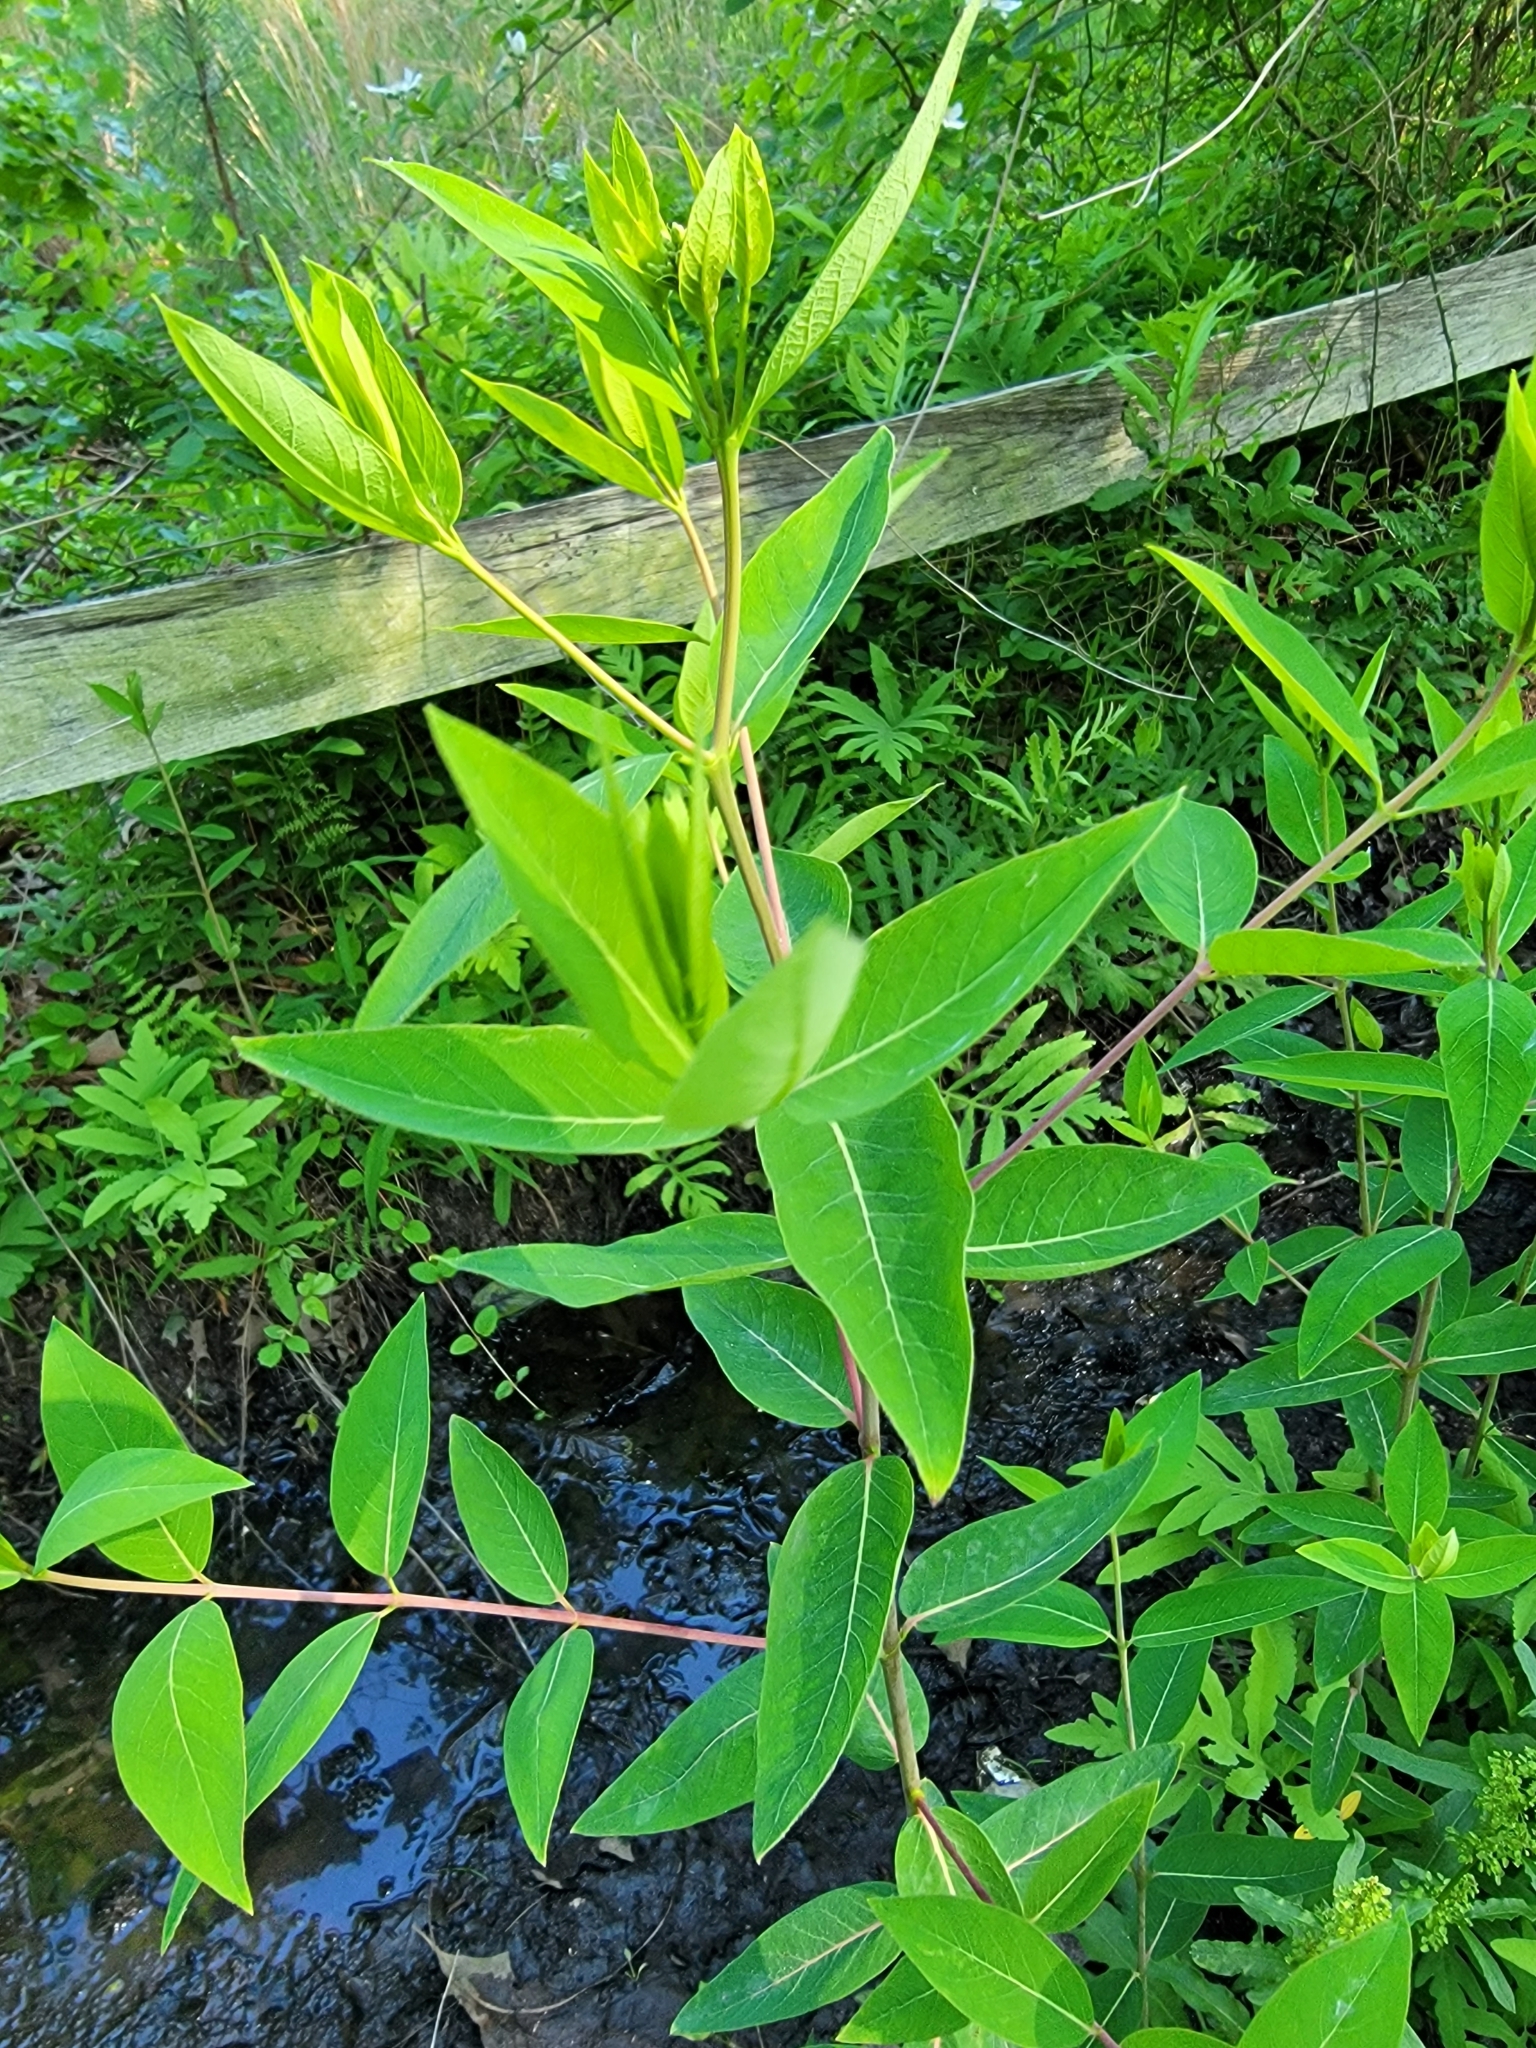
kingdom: Plantae
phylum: Tracheophyta
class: Magnoliopsida
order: Gentianales
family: Apocynaceae
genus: Apocynum
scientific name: Apocynum cannabinum
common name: Hemp dogbane
